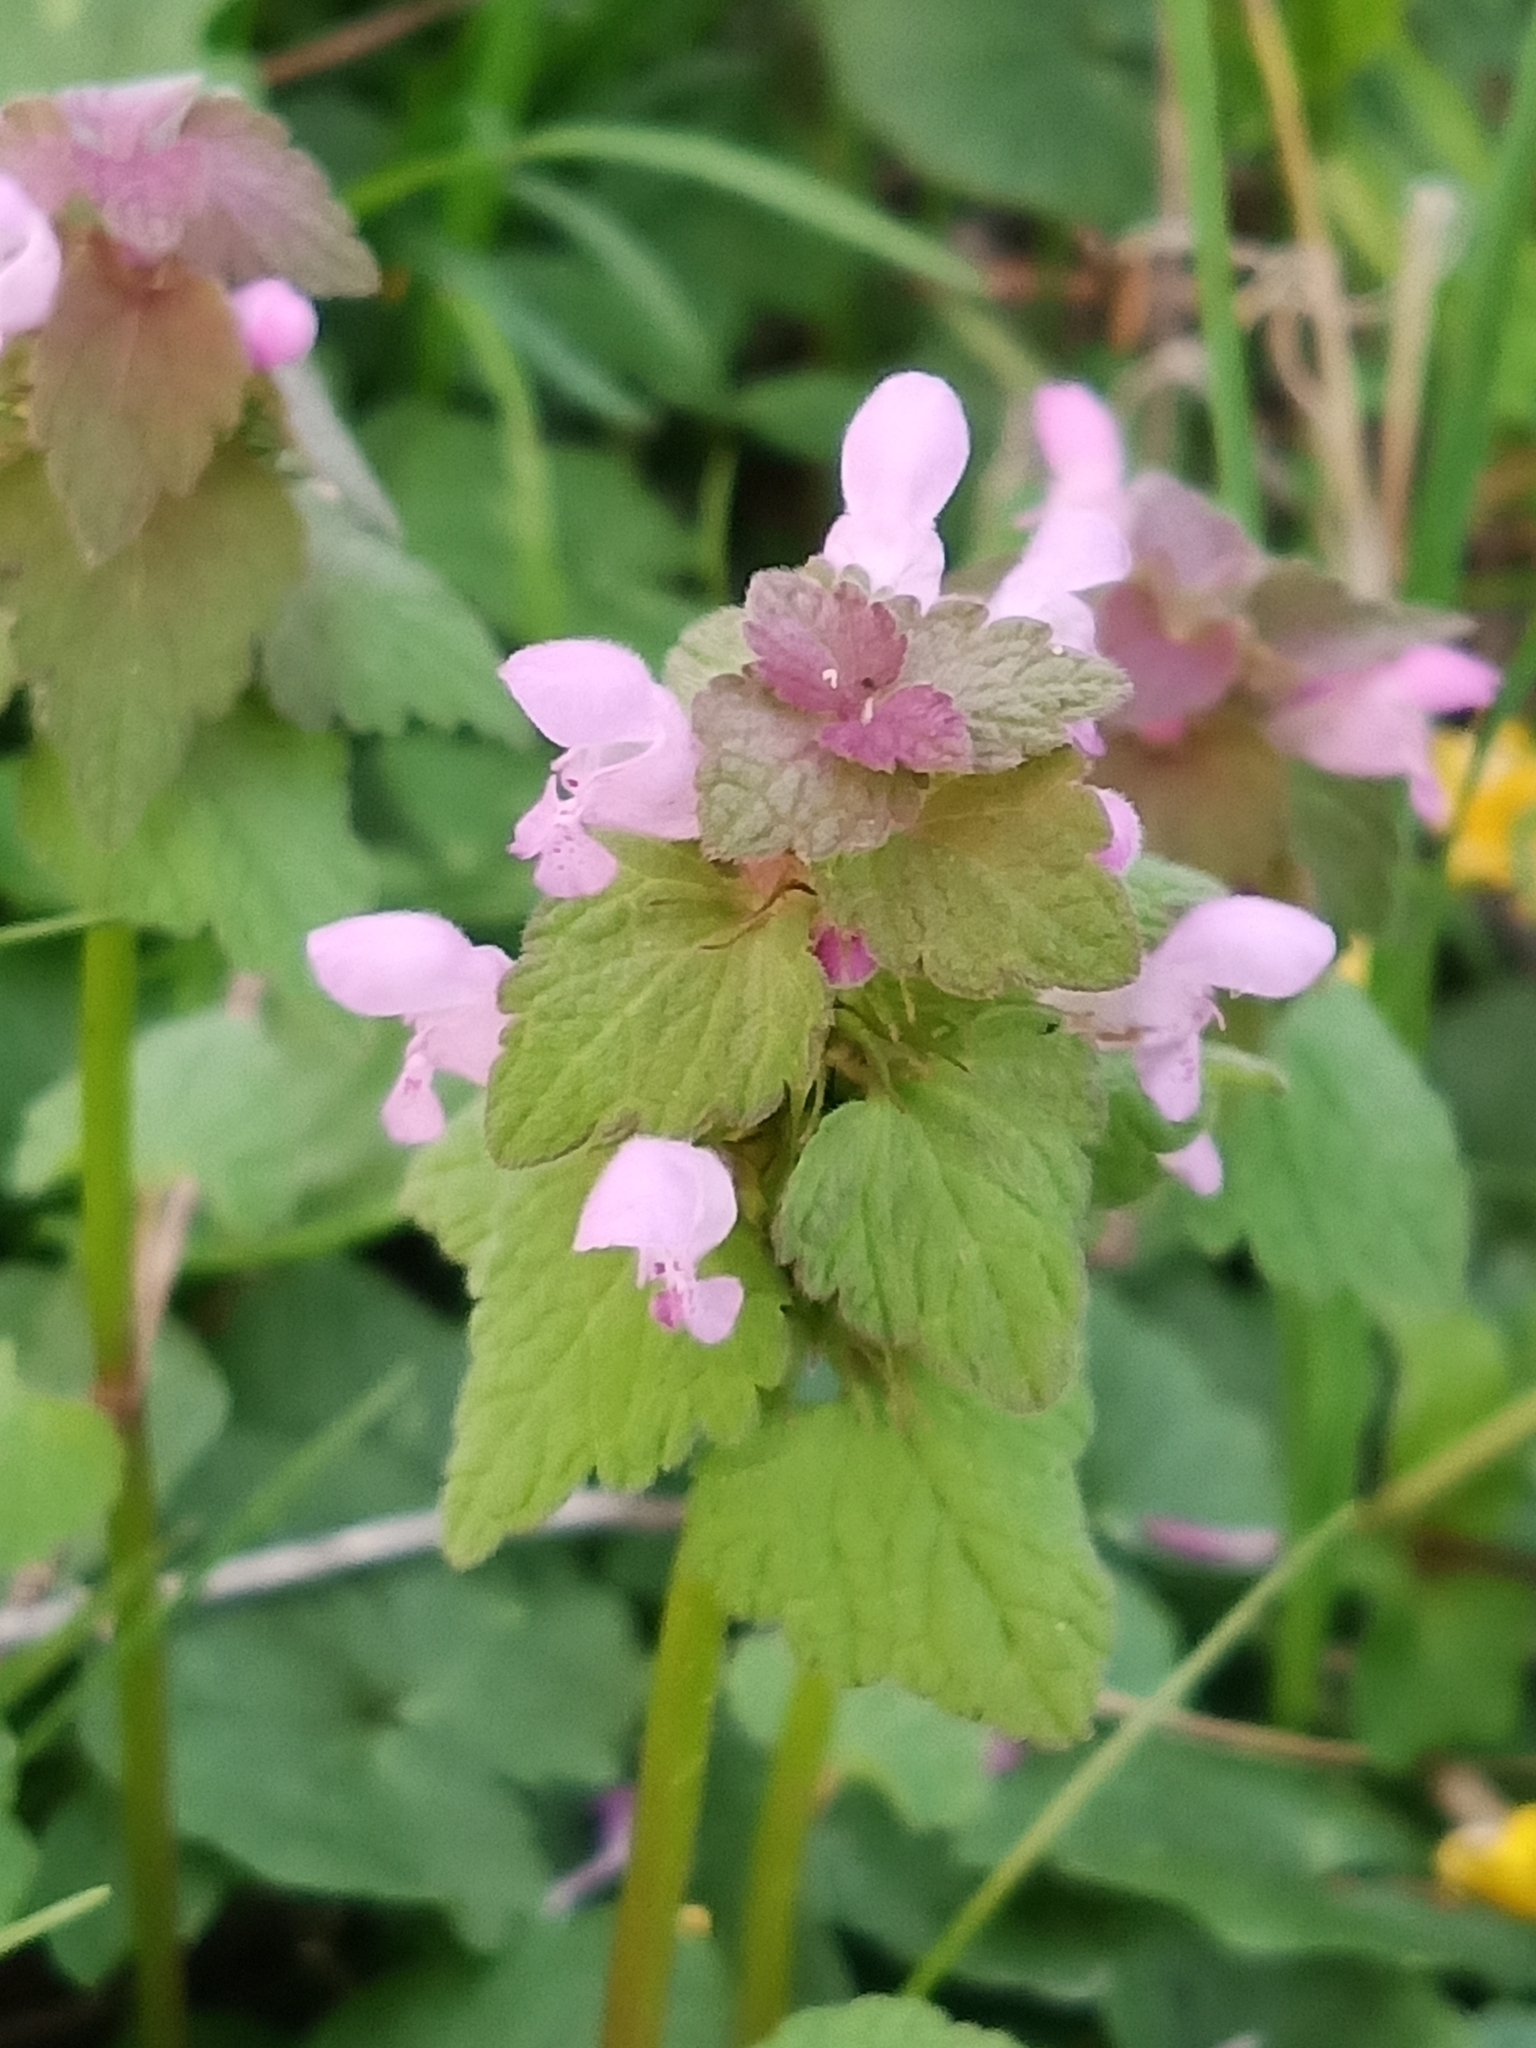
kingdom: Plantae
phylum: Tracheophyta
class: Magnoliopsida
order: Lamiales
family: Lamiaceae
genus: Lamium
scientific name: Lamium purpureum
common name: Red dead-nettle
